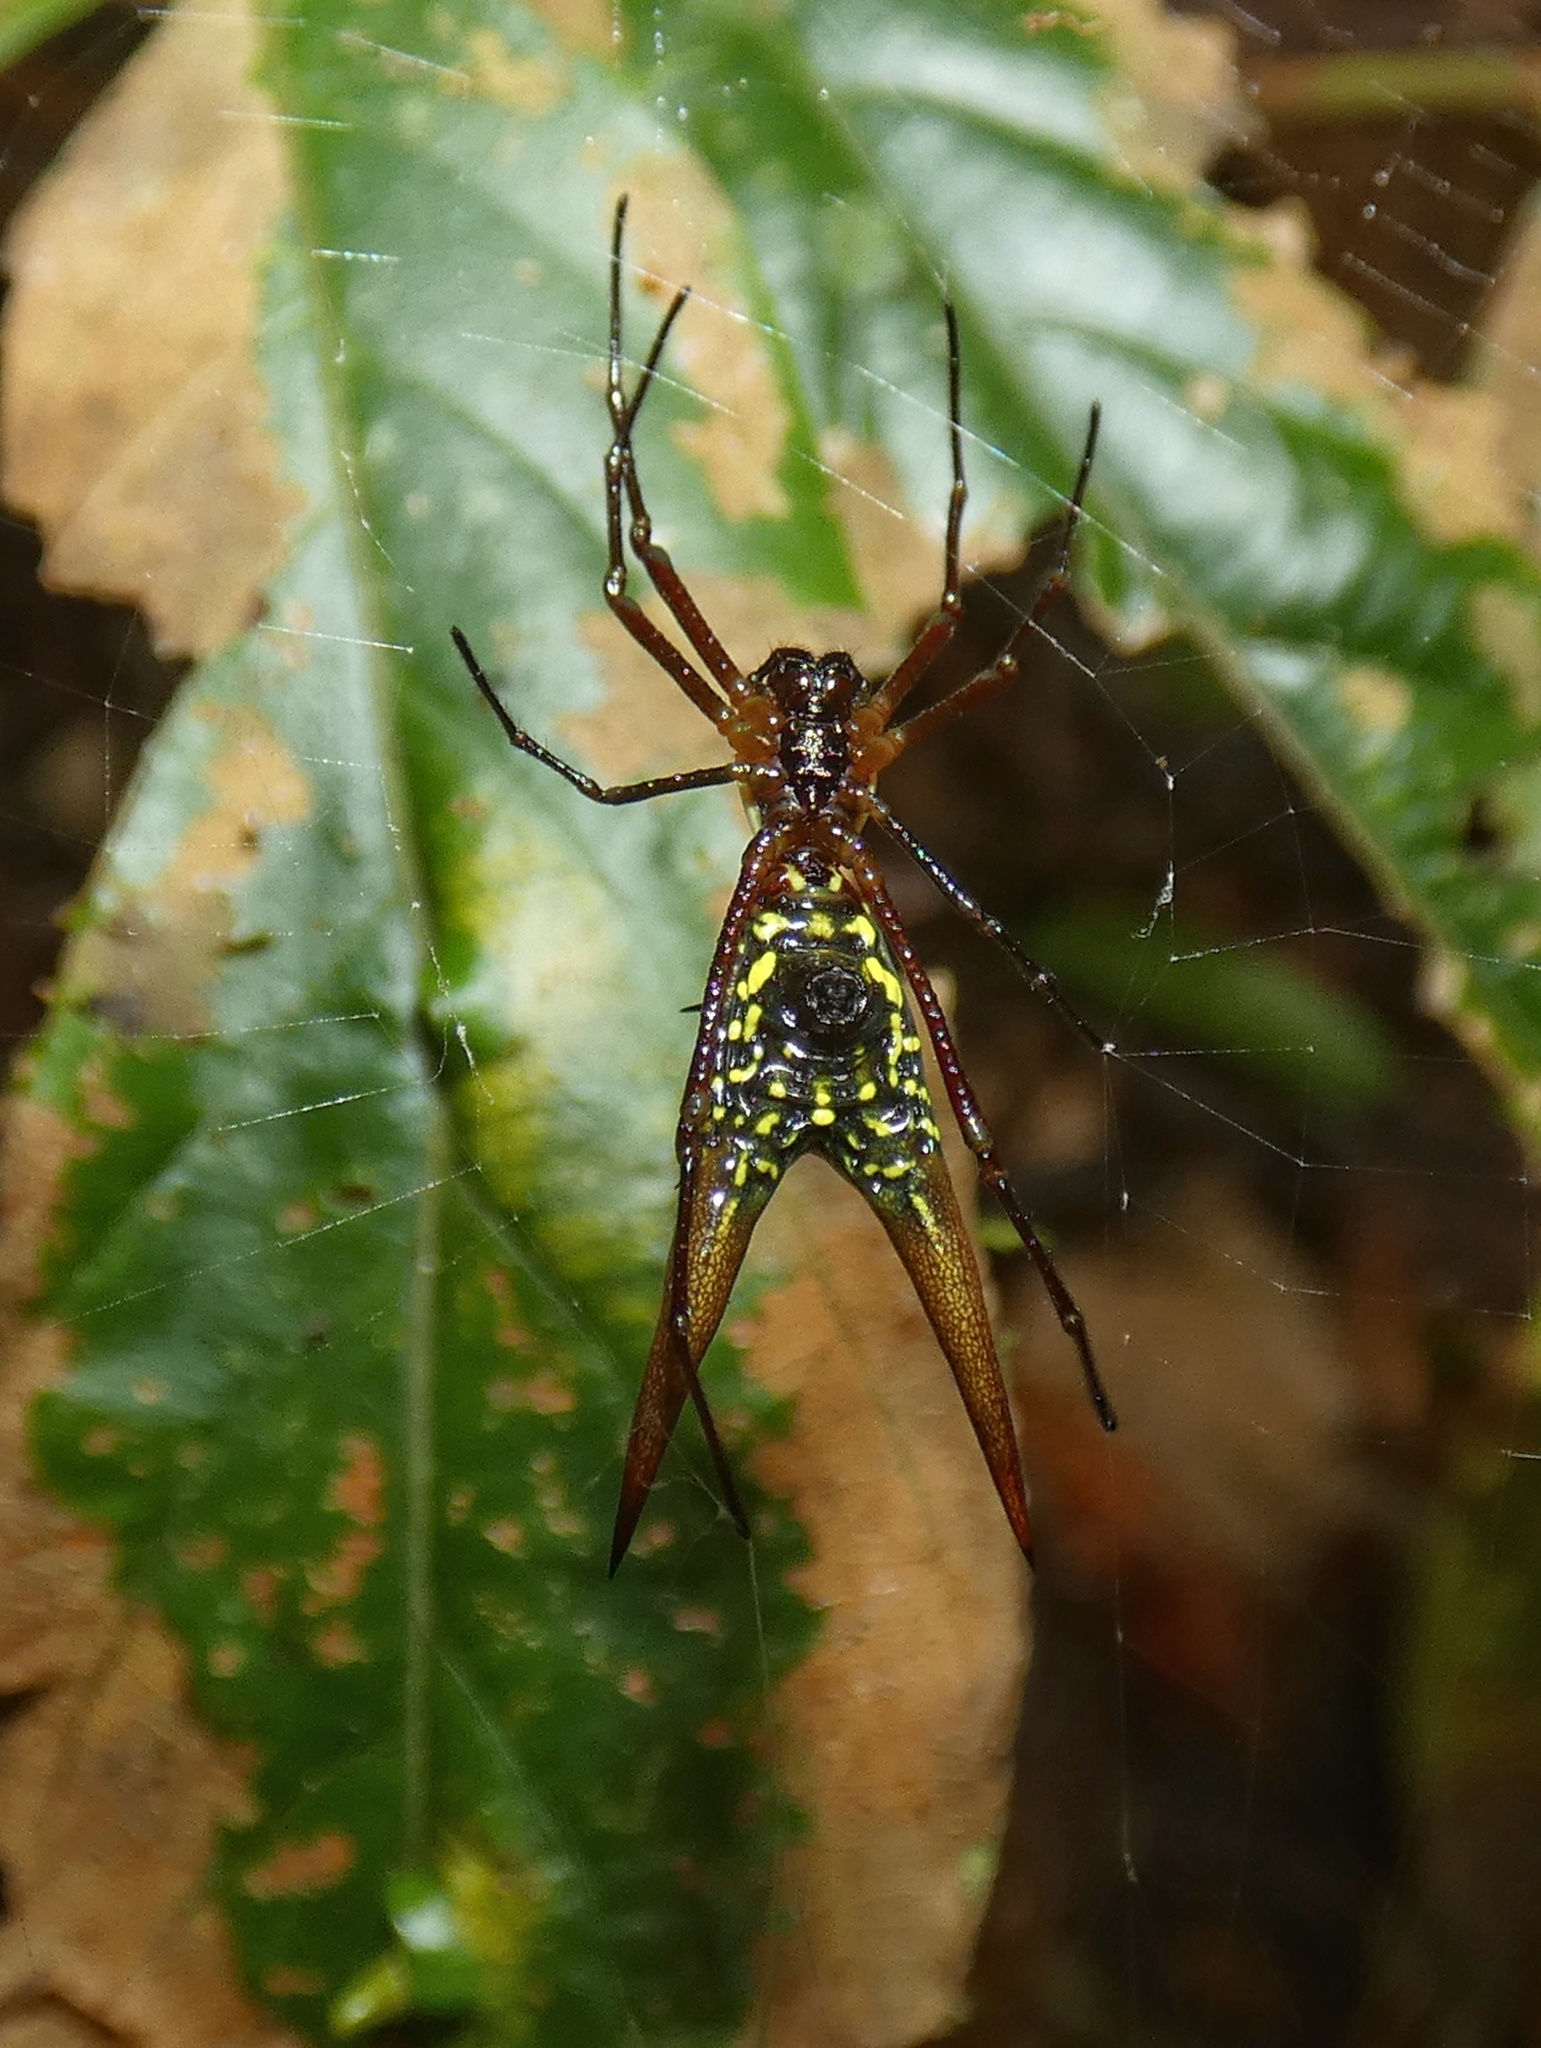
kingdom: Animalia
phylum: Arthropoda
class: Arachnida
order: Araneae
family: Araneidae
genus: Micrathena
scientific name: Micrathena donaldi
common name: Orb weavers
